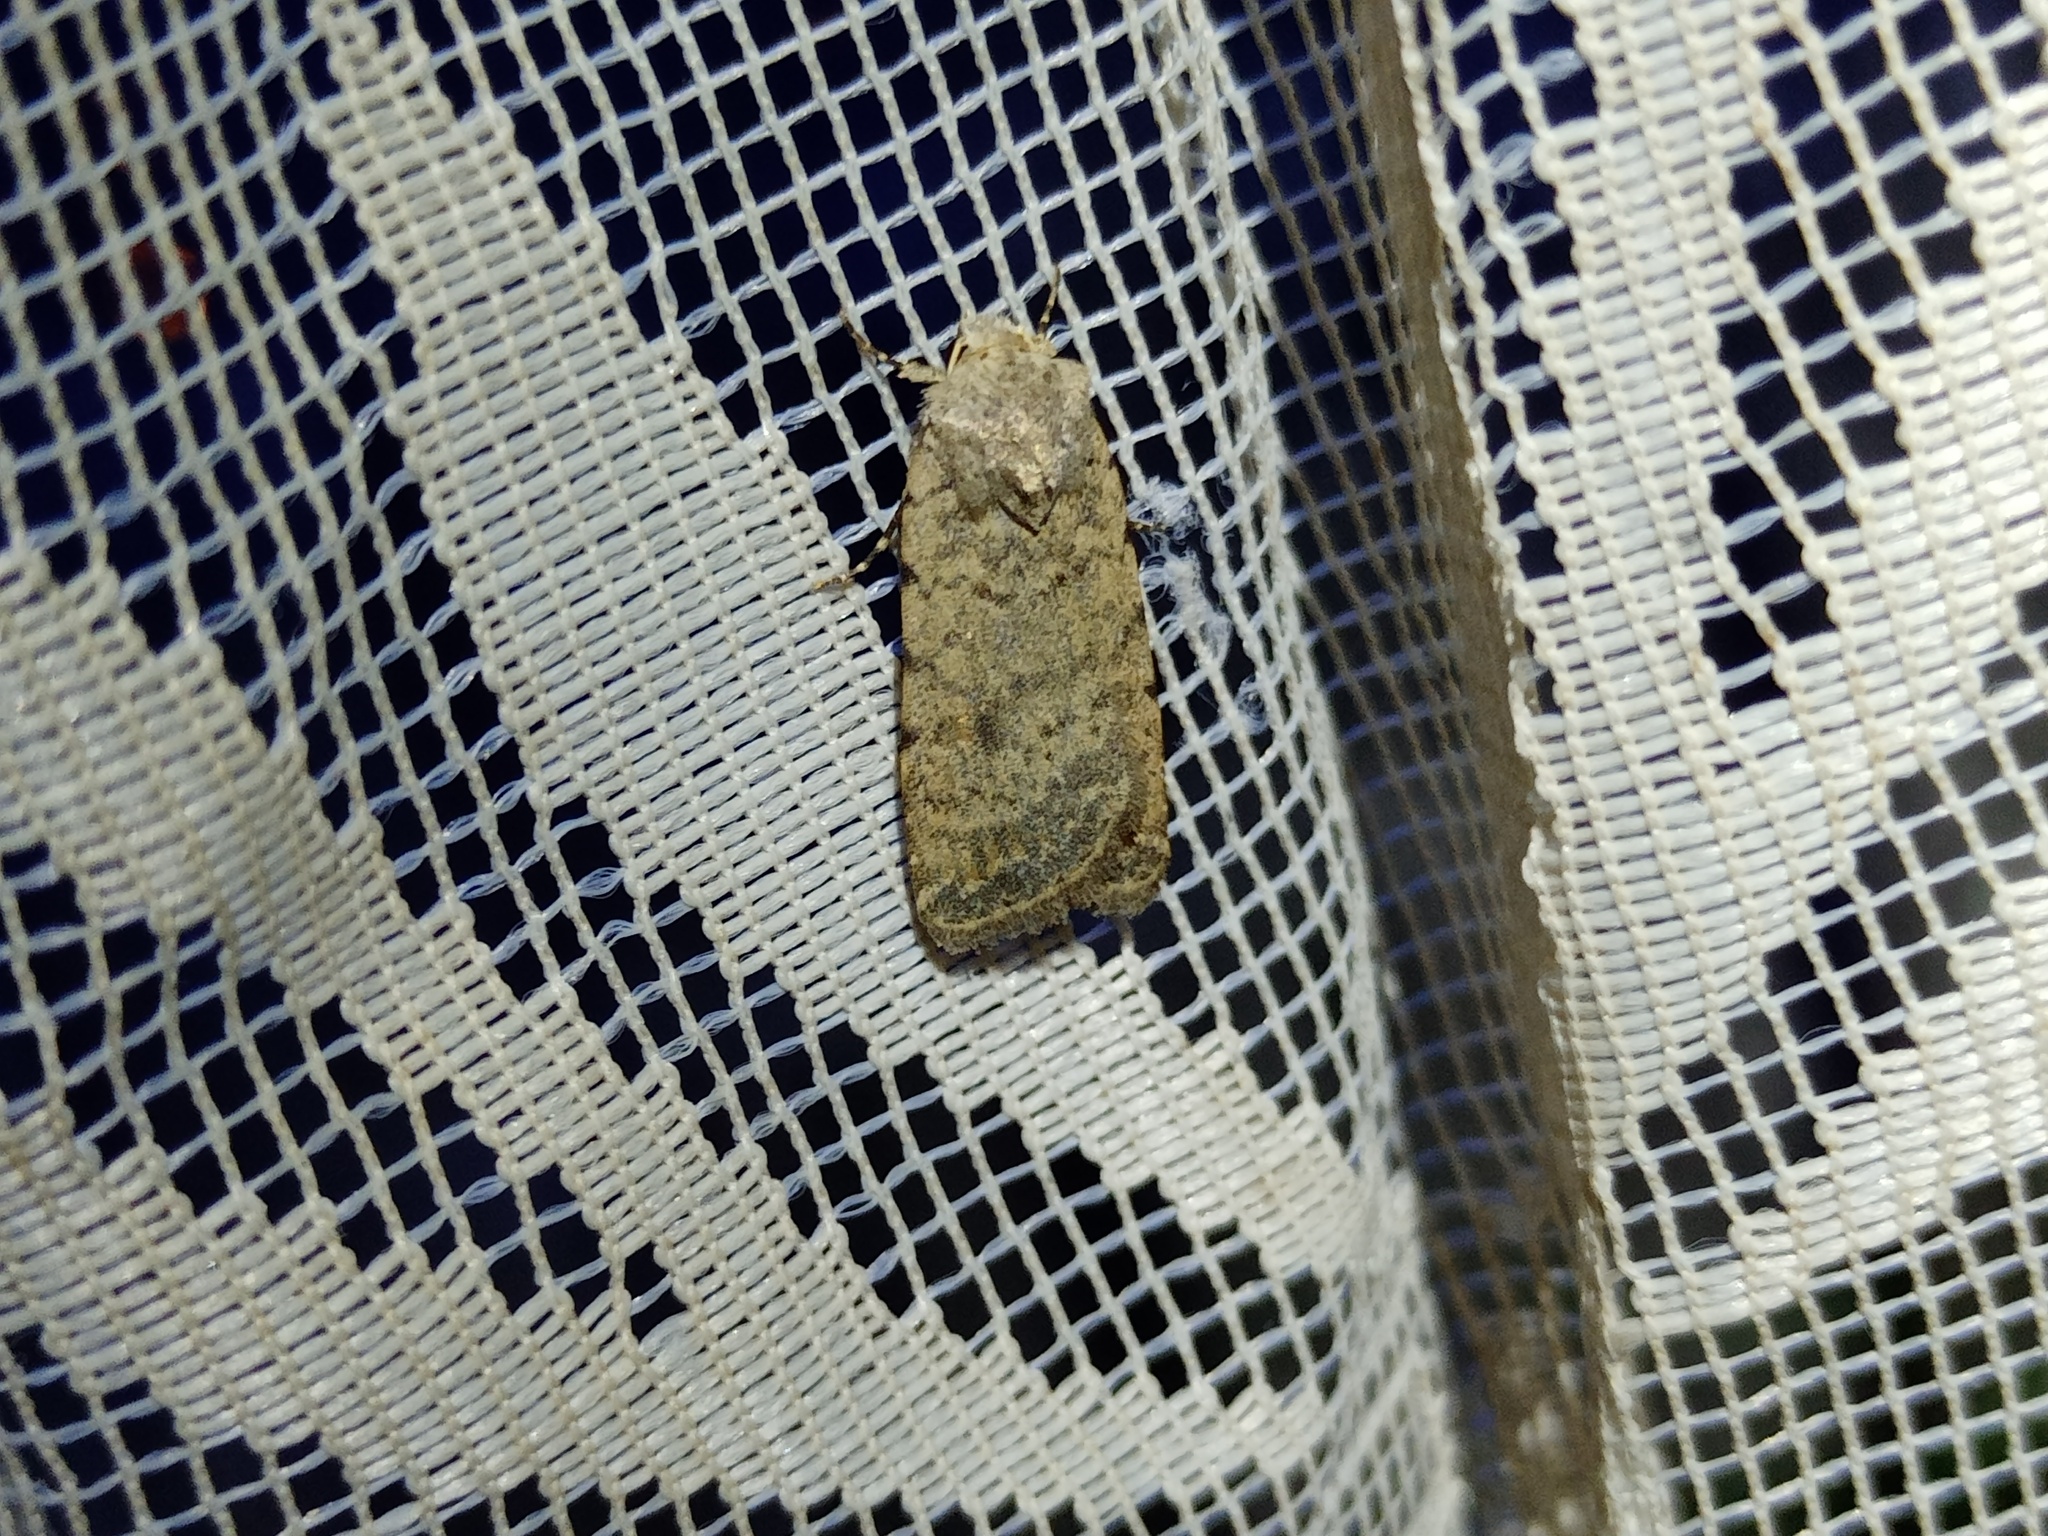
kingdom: Animalia
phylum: Arthropoda
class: Insecta
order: Lepidoptera
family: Noctuidae
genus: Caradrina
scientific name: Caradrina clavipalpis
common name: Pale mottled willow
